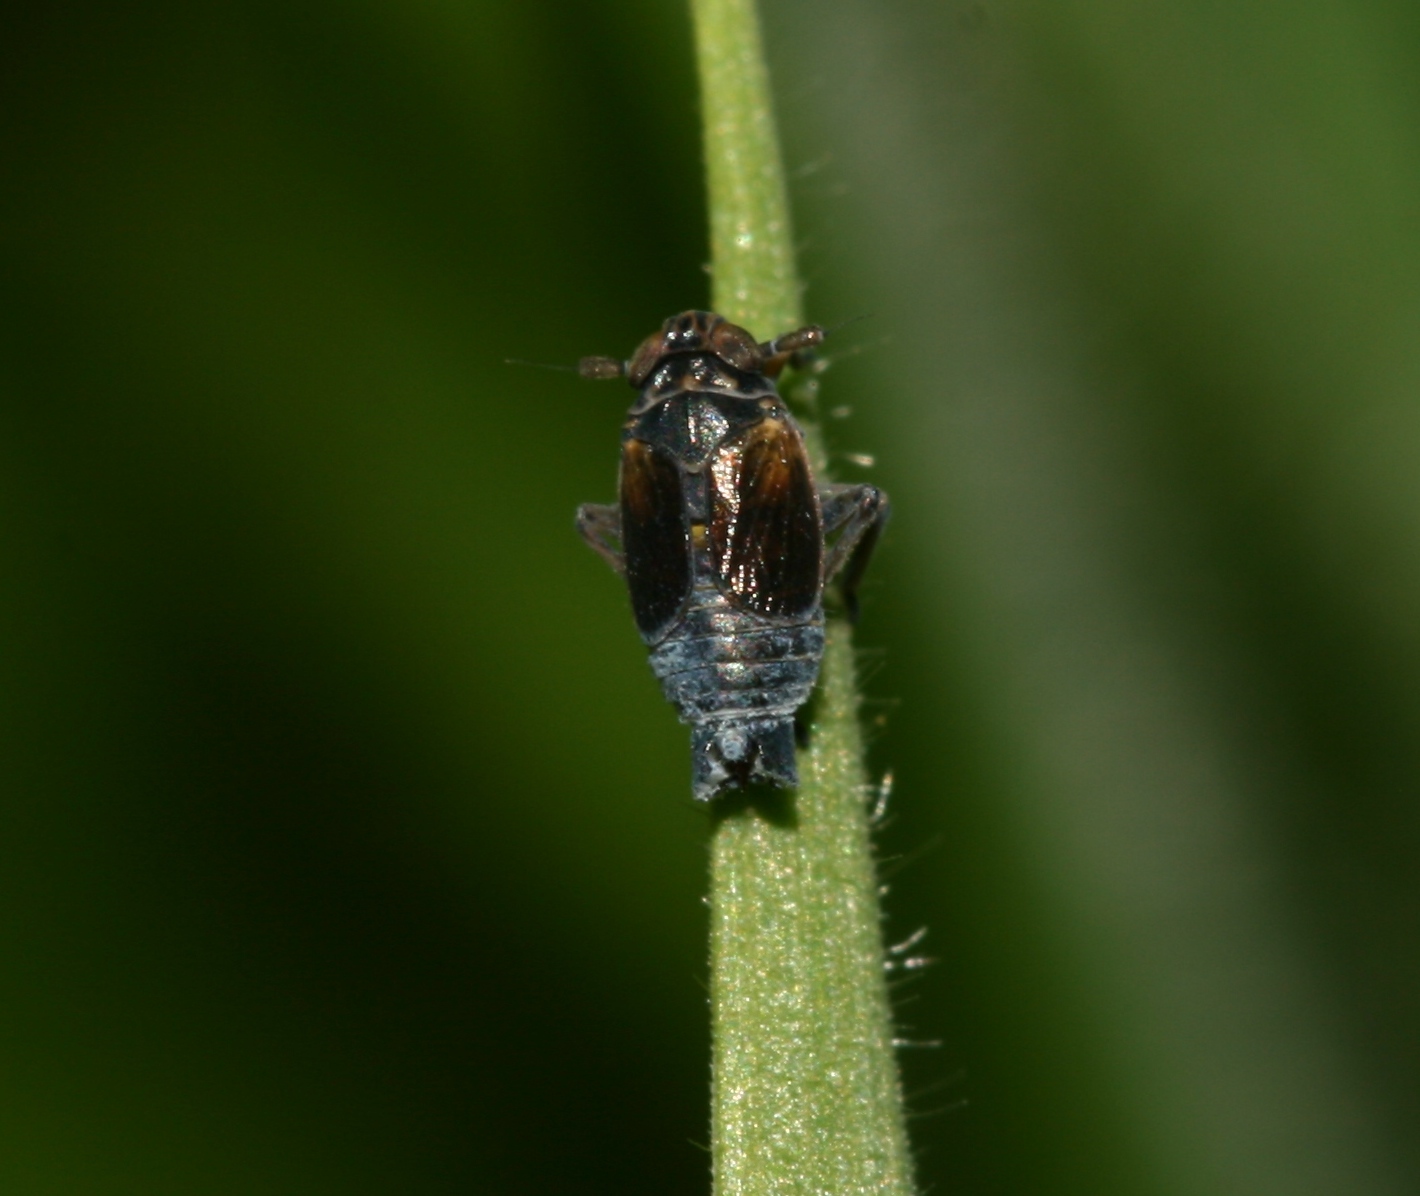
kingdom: Animalia
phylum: Arthropoda
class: Insecta
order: Hemiptera
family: Delphacidae
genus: Javesella
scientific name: Javesella discolor
